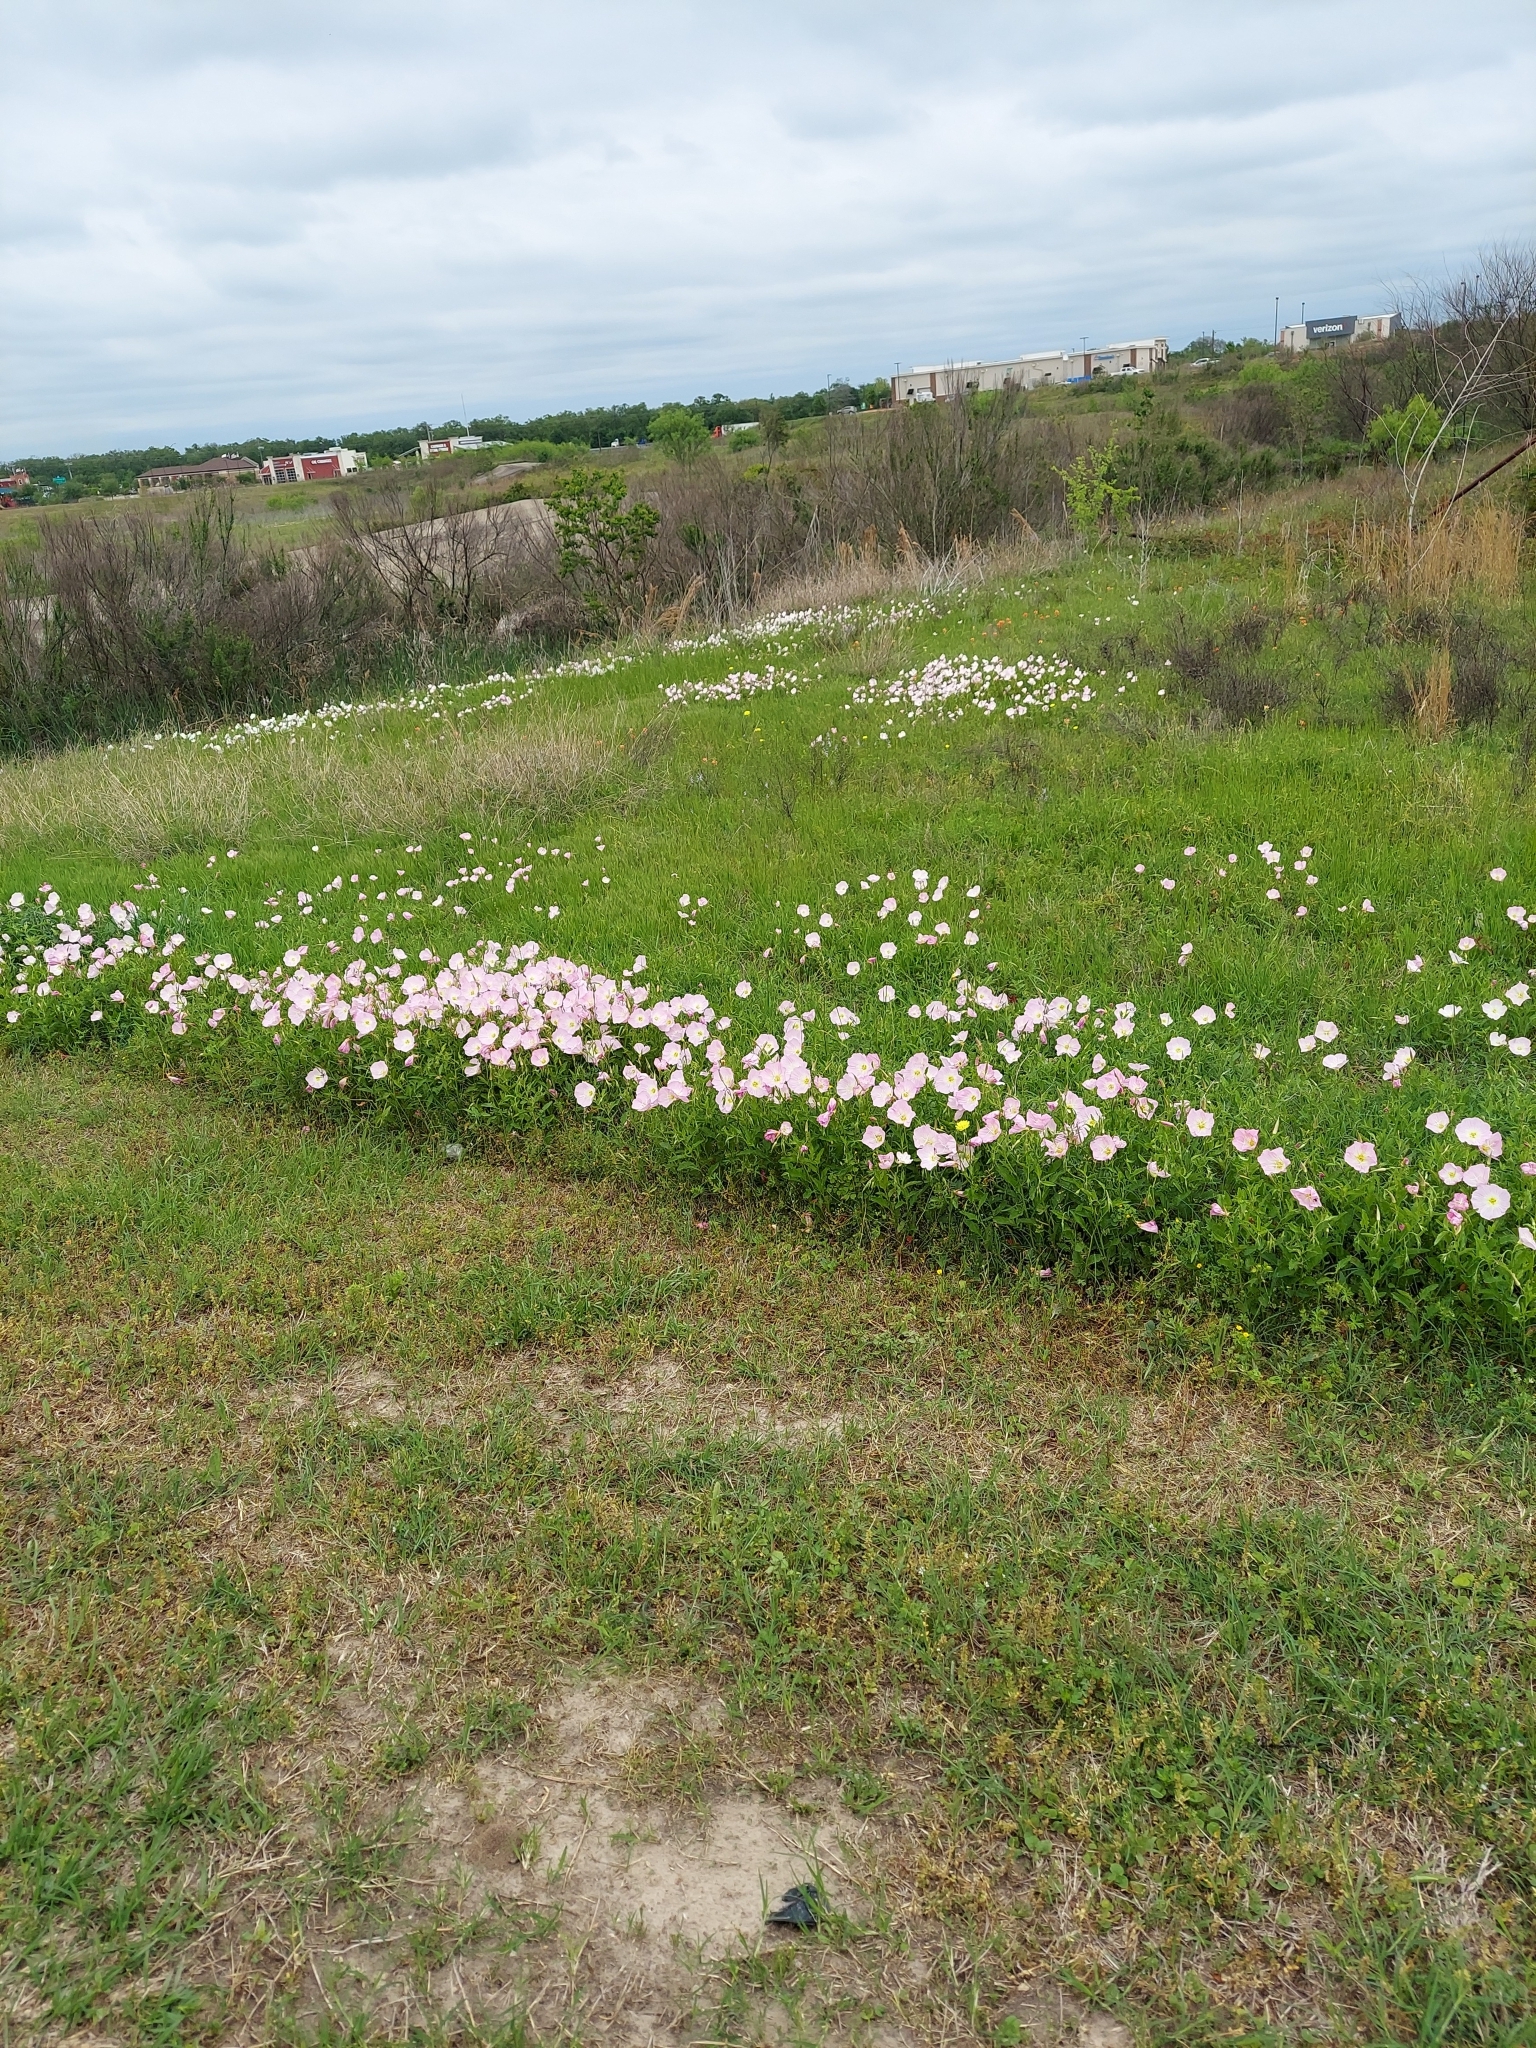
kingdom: Plantae
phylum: Tracheophyta
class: Magnoliopsida
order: Myrtales
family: Onagraceae
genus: Oenothera
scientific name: Oenothera speciosa
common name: White evening-primrose
